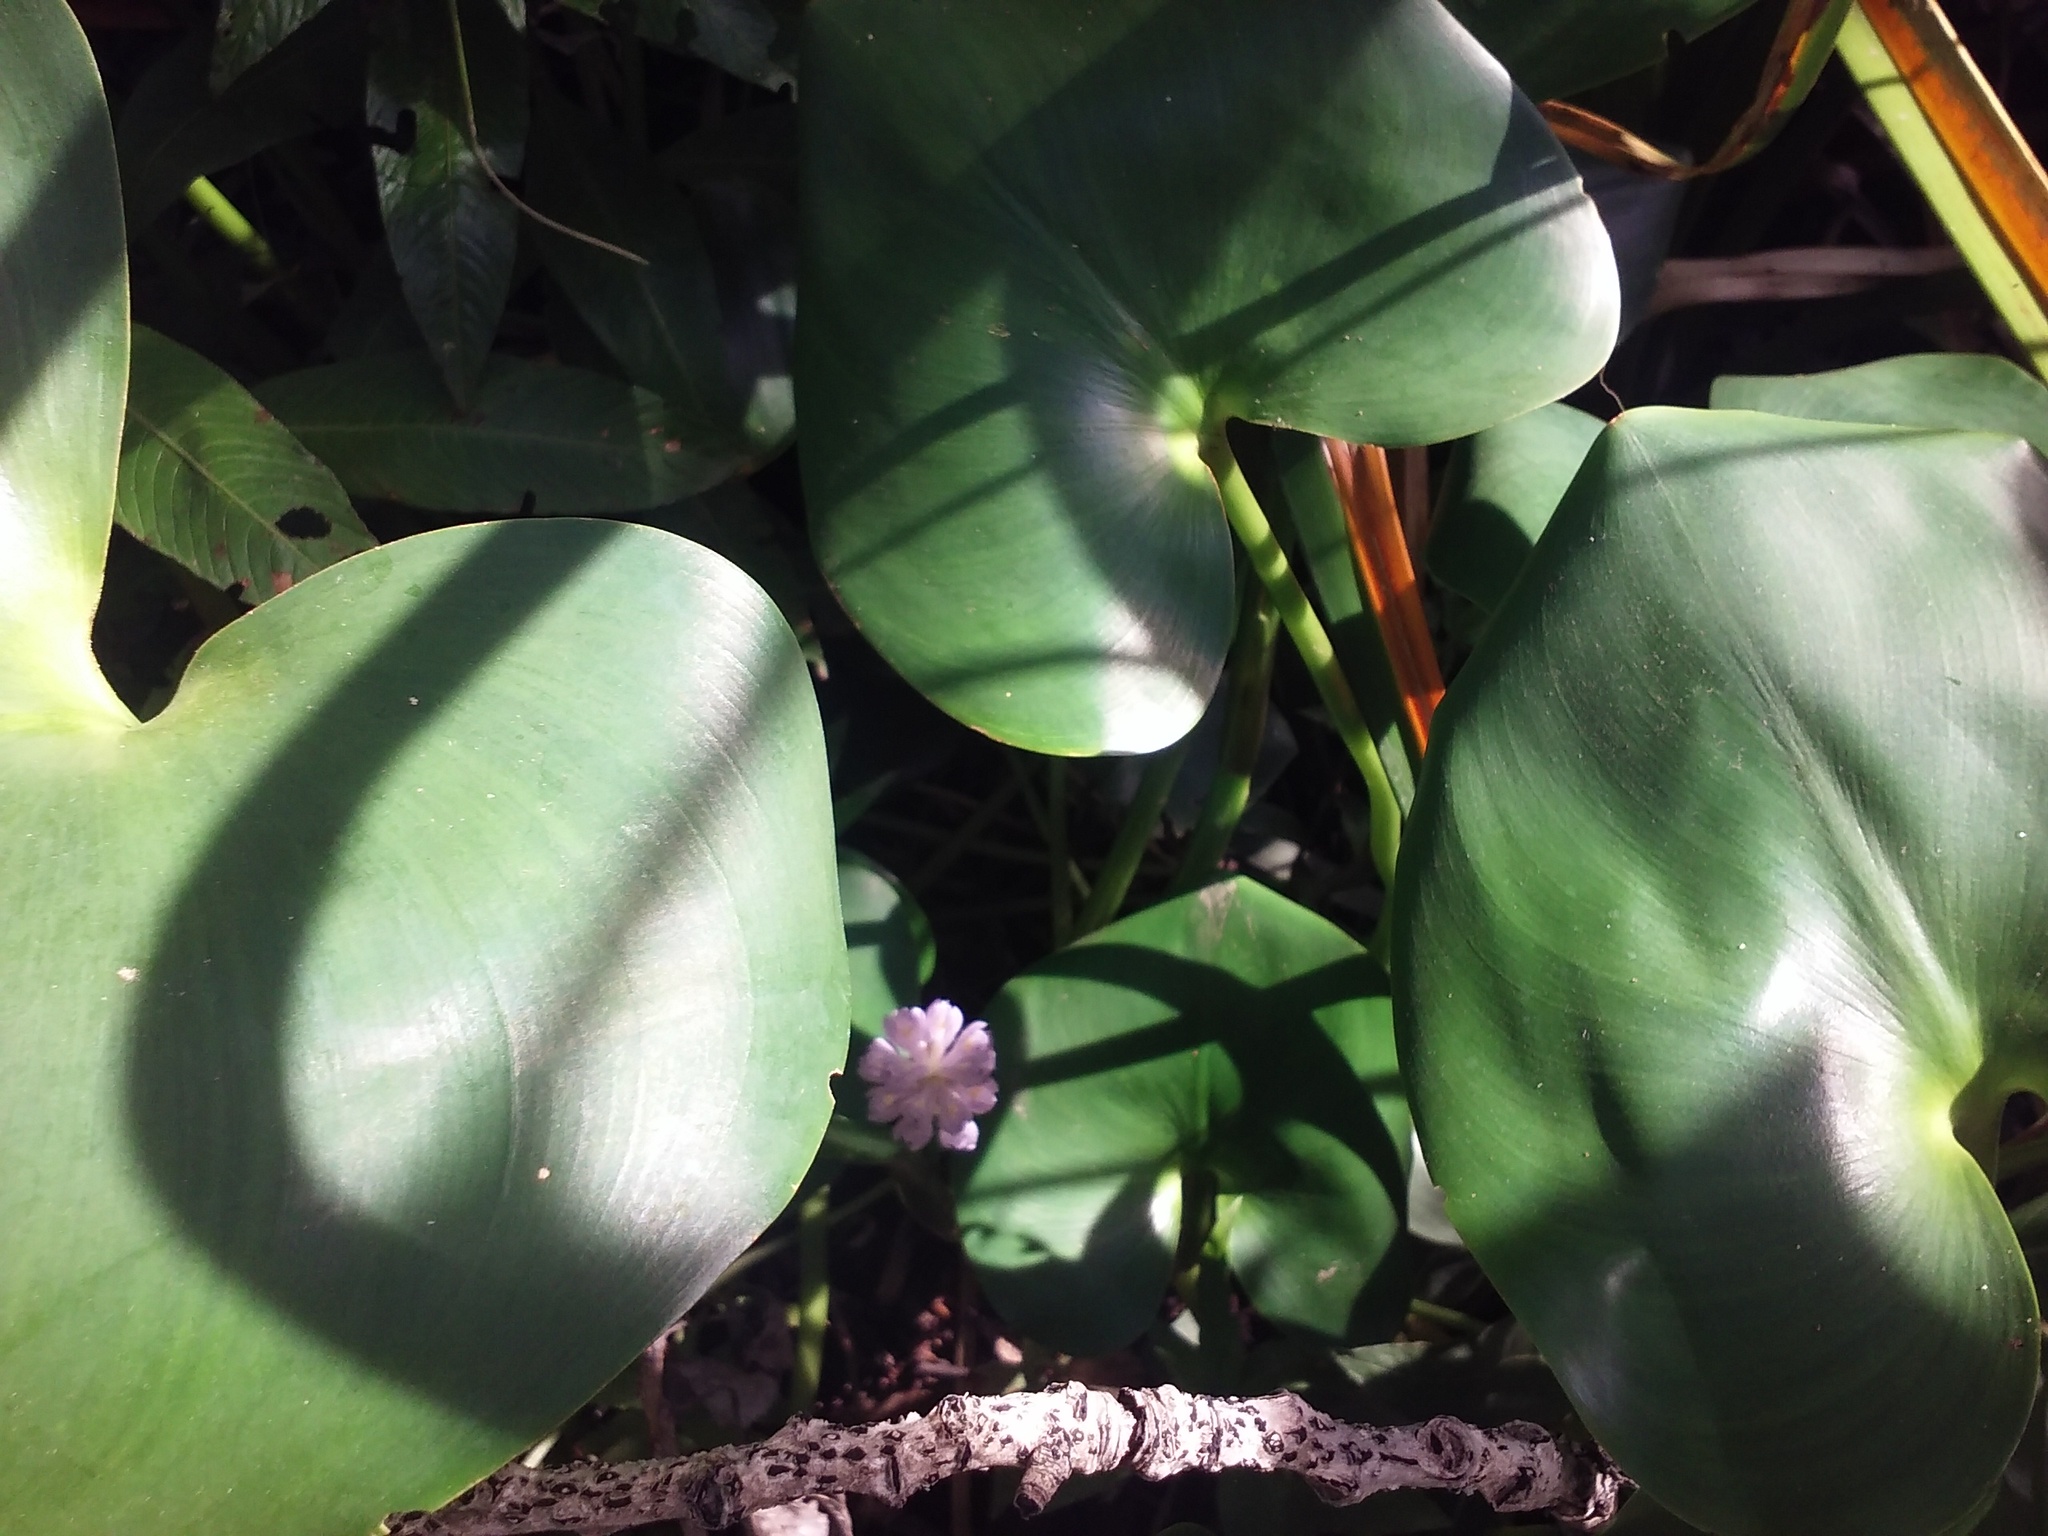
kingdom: Plantae
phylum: Tracheophyta
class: Liliopsida
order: Commelinales
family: Pontederiaceae
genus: Pontederia
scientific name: Pontederia rotundifolia
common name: Tropical pickerel-weed
